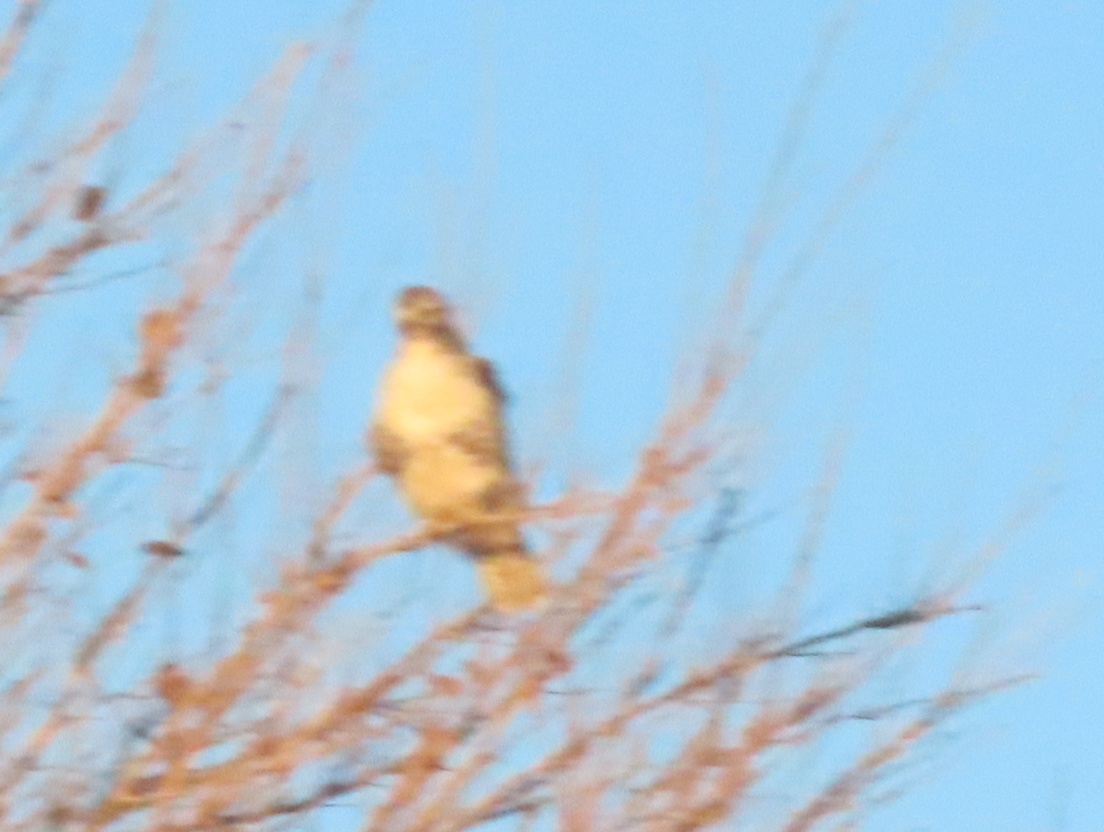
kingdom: Animalia
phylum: Chordata
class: Aves
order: Accipitriformes
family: Accipitridae
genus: Buteo
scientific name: Buteo jamaicensis
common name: Red-tailed hawk
